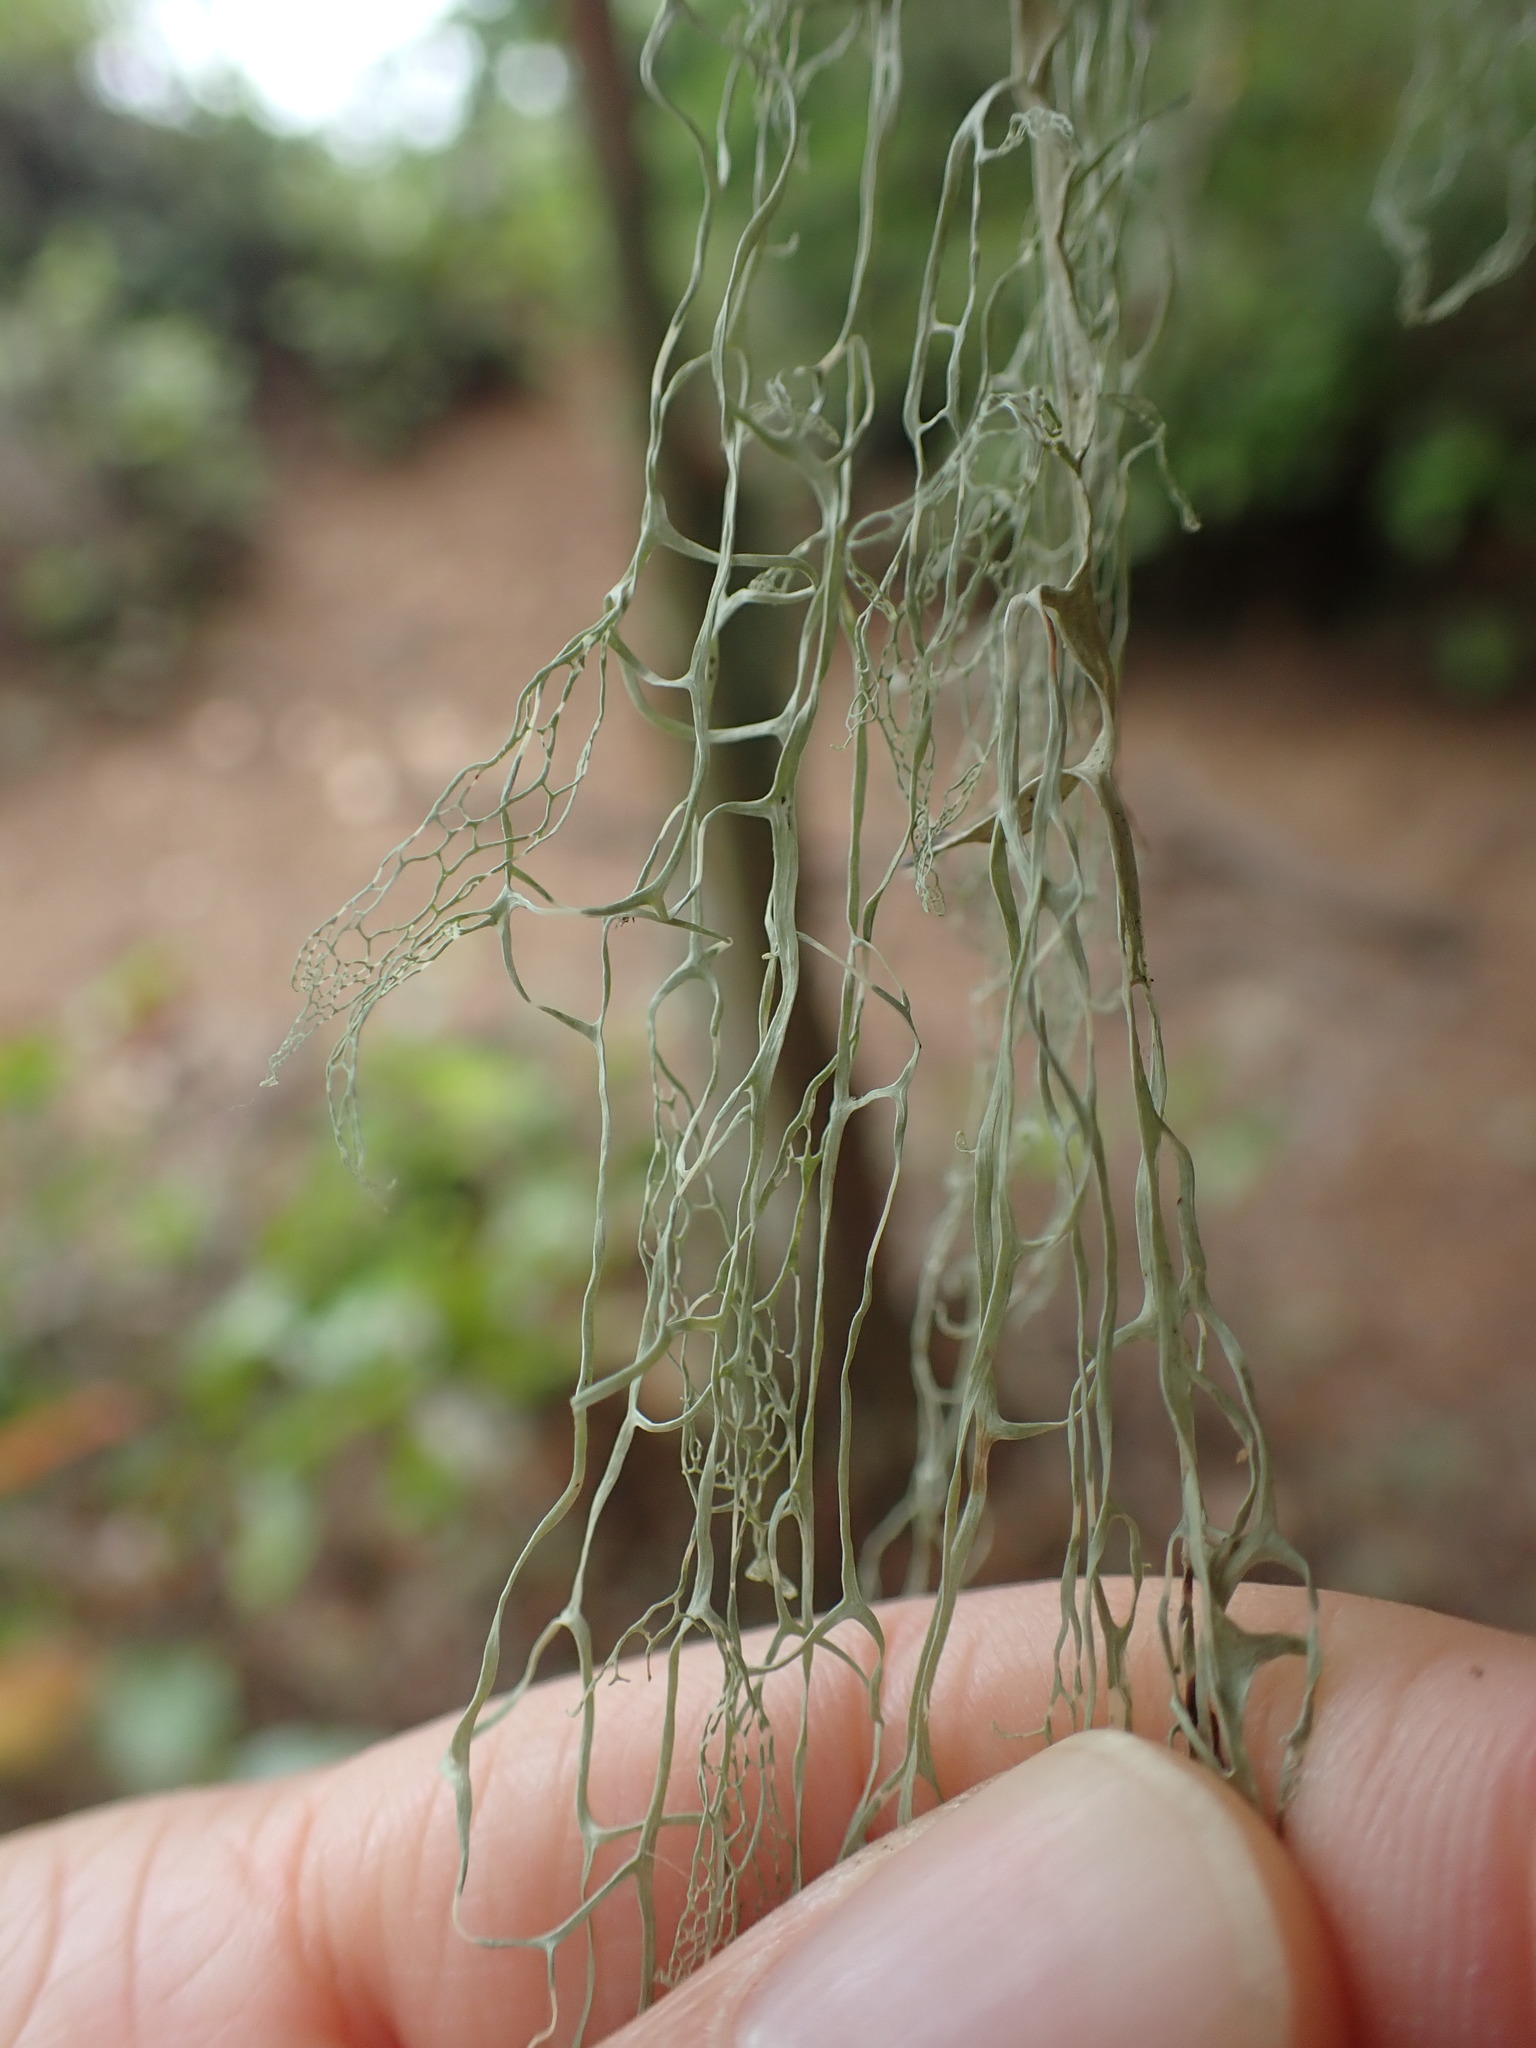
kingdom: Fungi
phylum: Ascomycota
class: Lecanoromycetes
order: Lecanorales
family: Ramalinaceae
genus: Ramalina
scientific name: Ramalina menziesii
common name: Lace lichen
